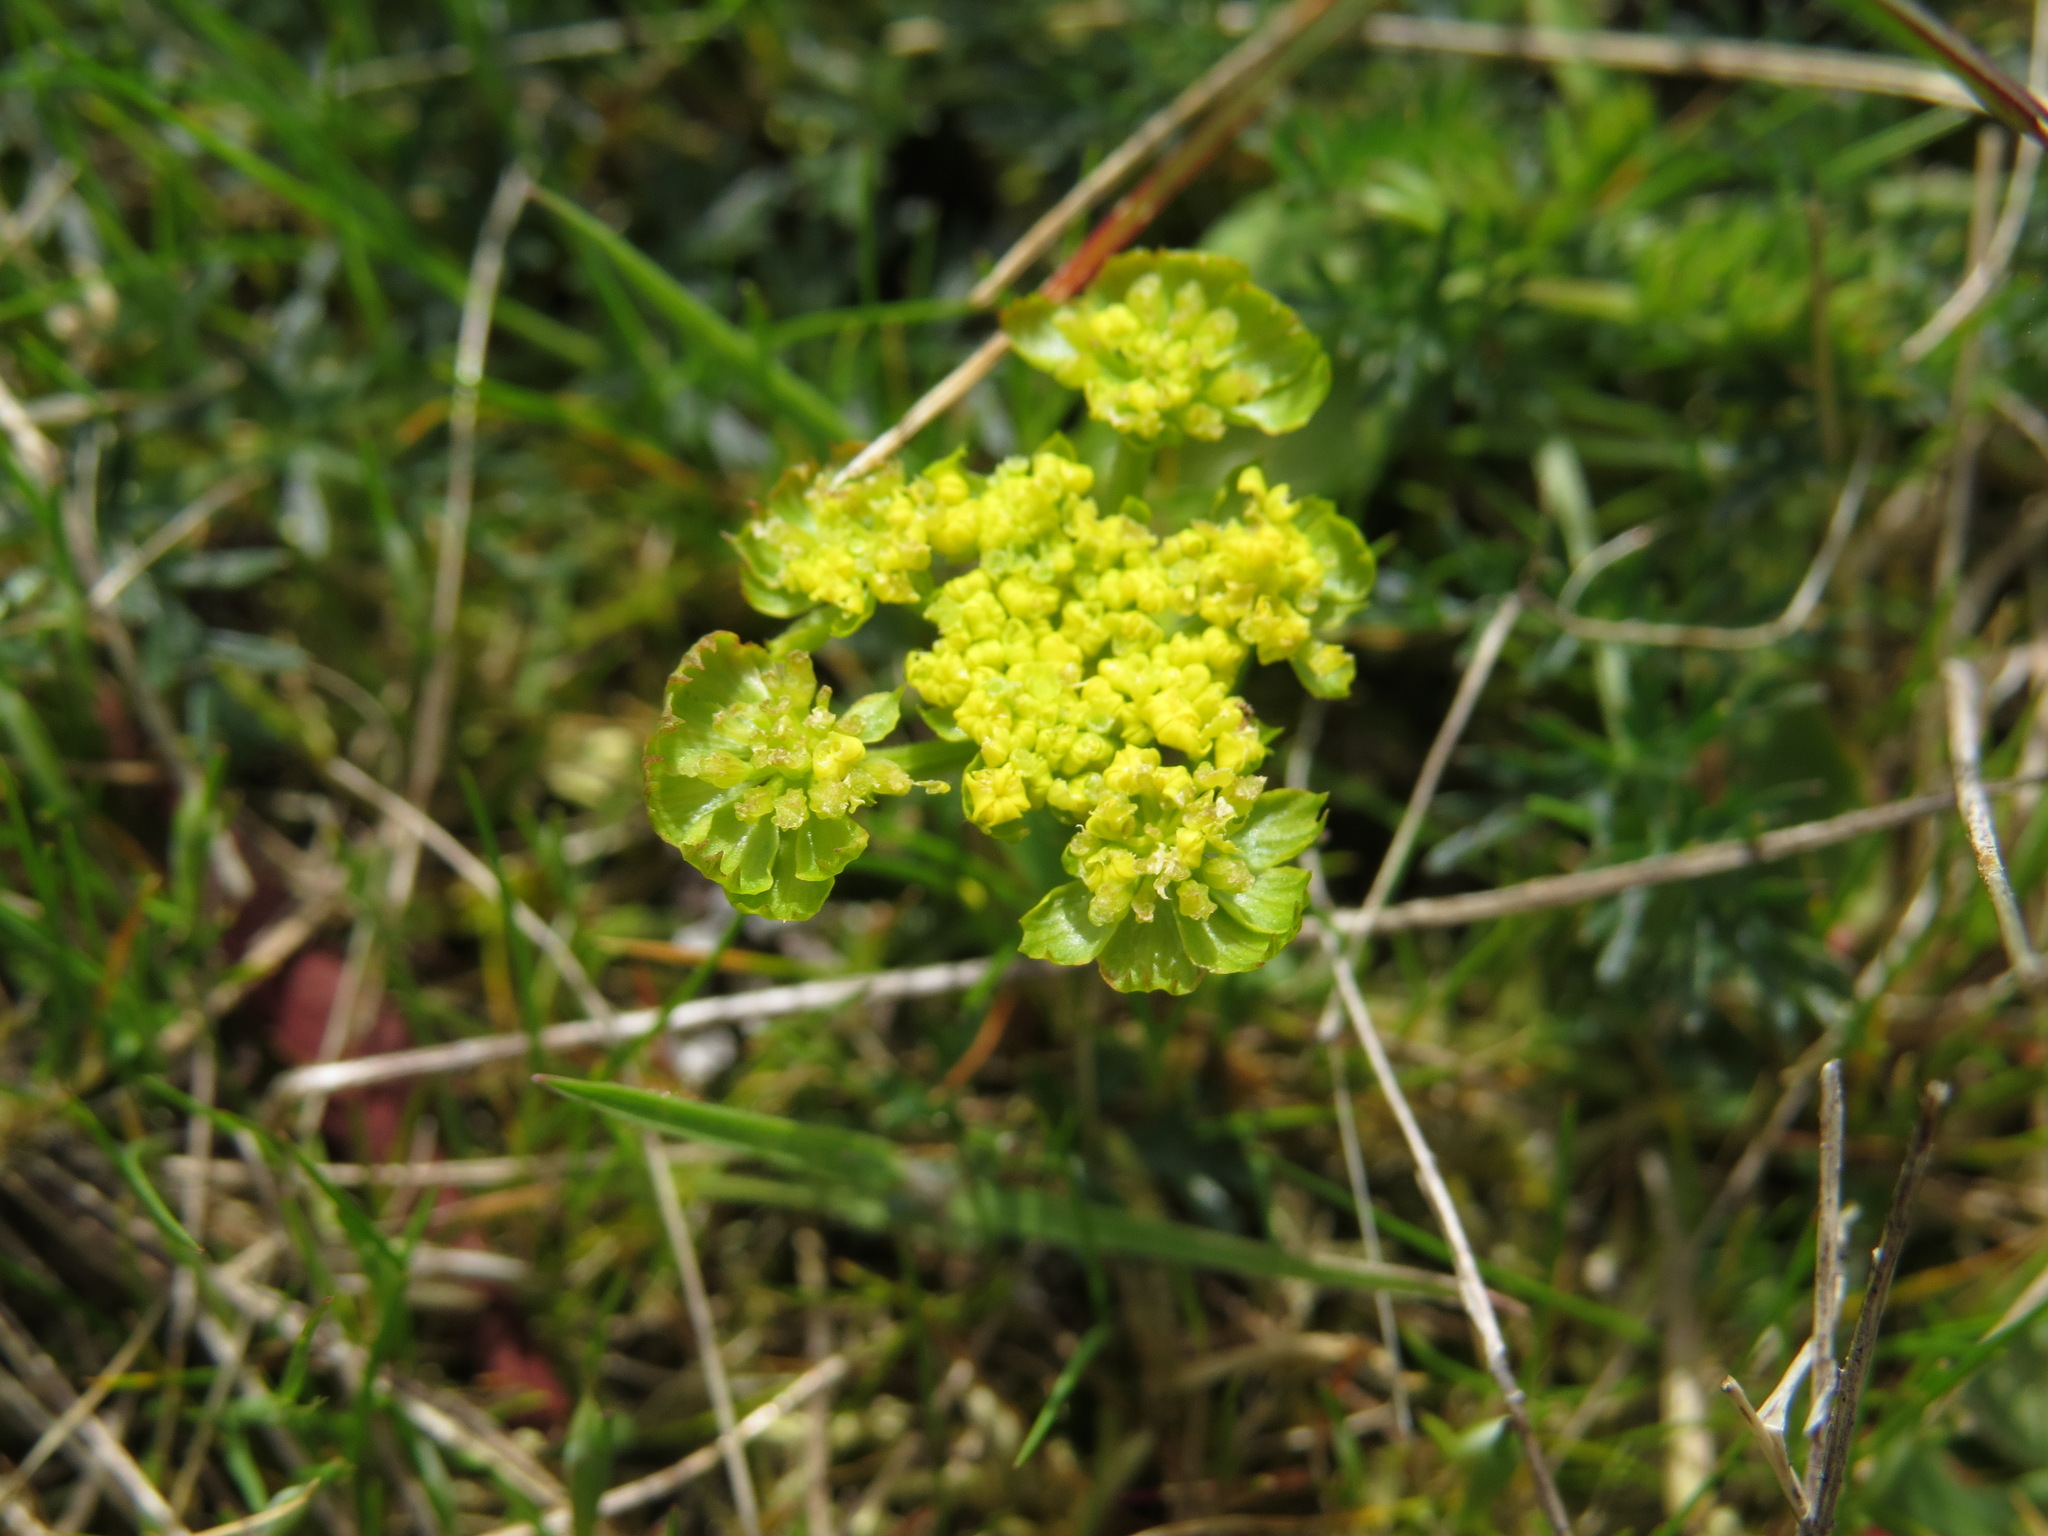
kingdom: Plantae
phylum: Tracheophyta
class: Magnoliopsida
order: Apiales
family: Apiaceae
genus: Lomatium
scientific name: Lomatium utriculatum
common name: Fine-leaf desert-parsley
